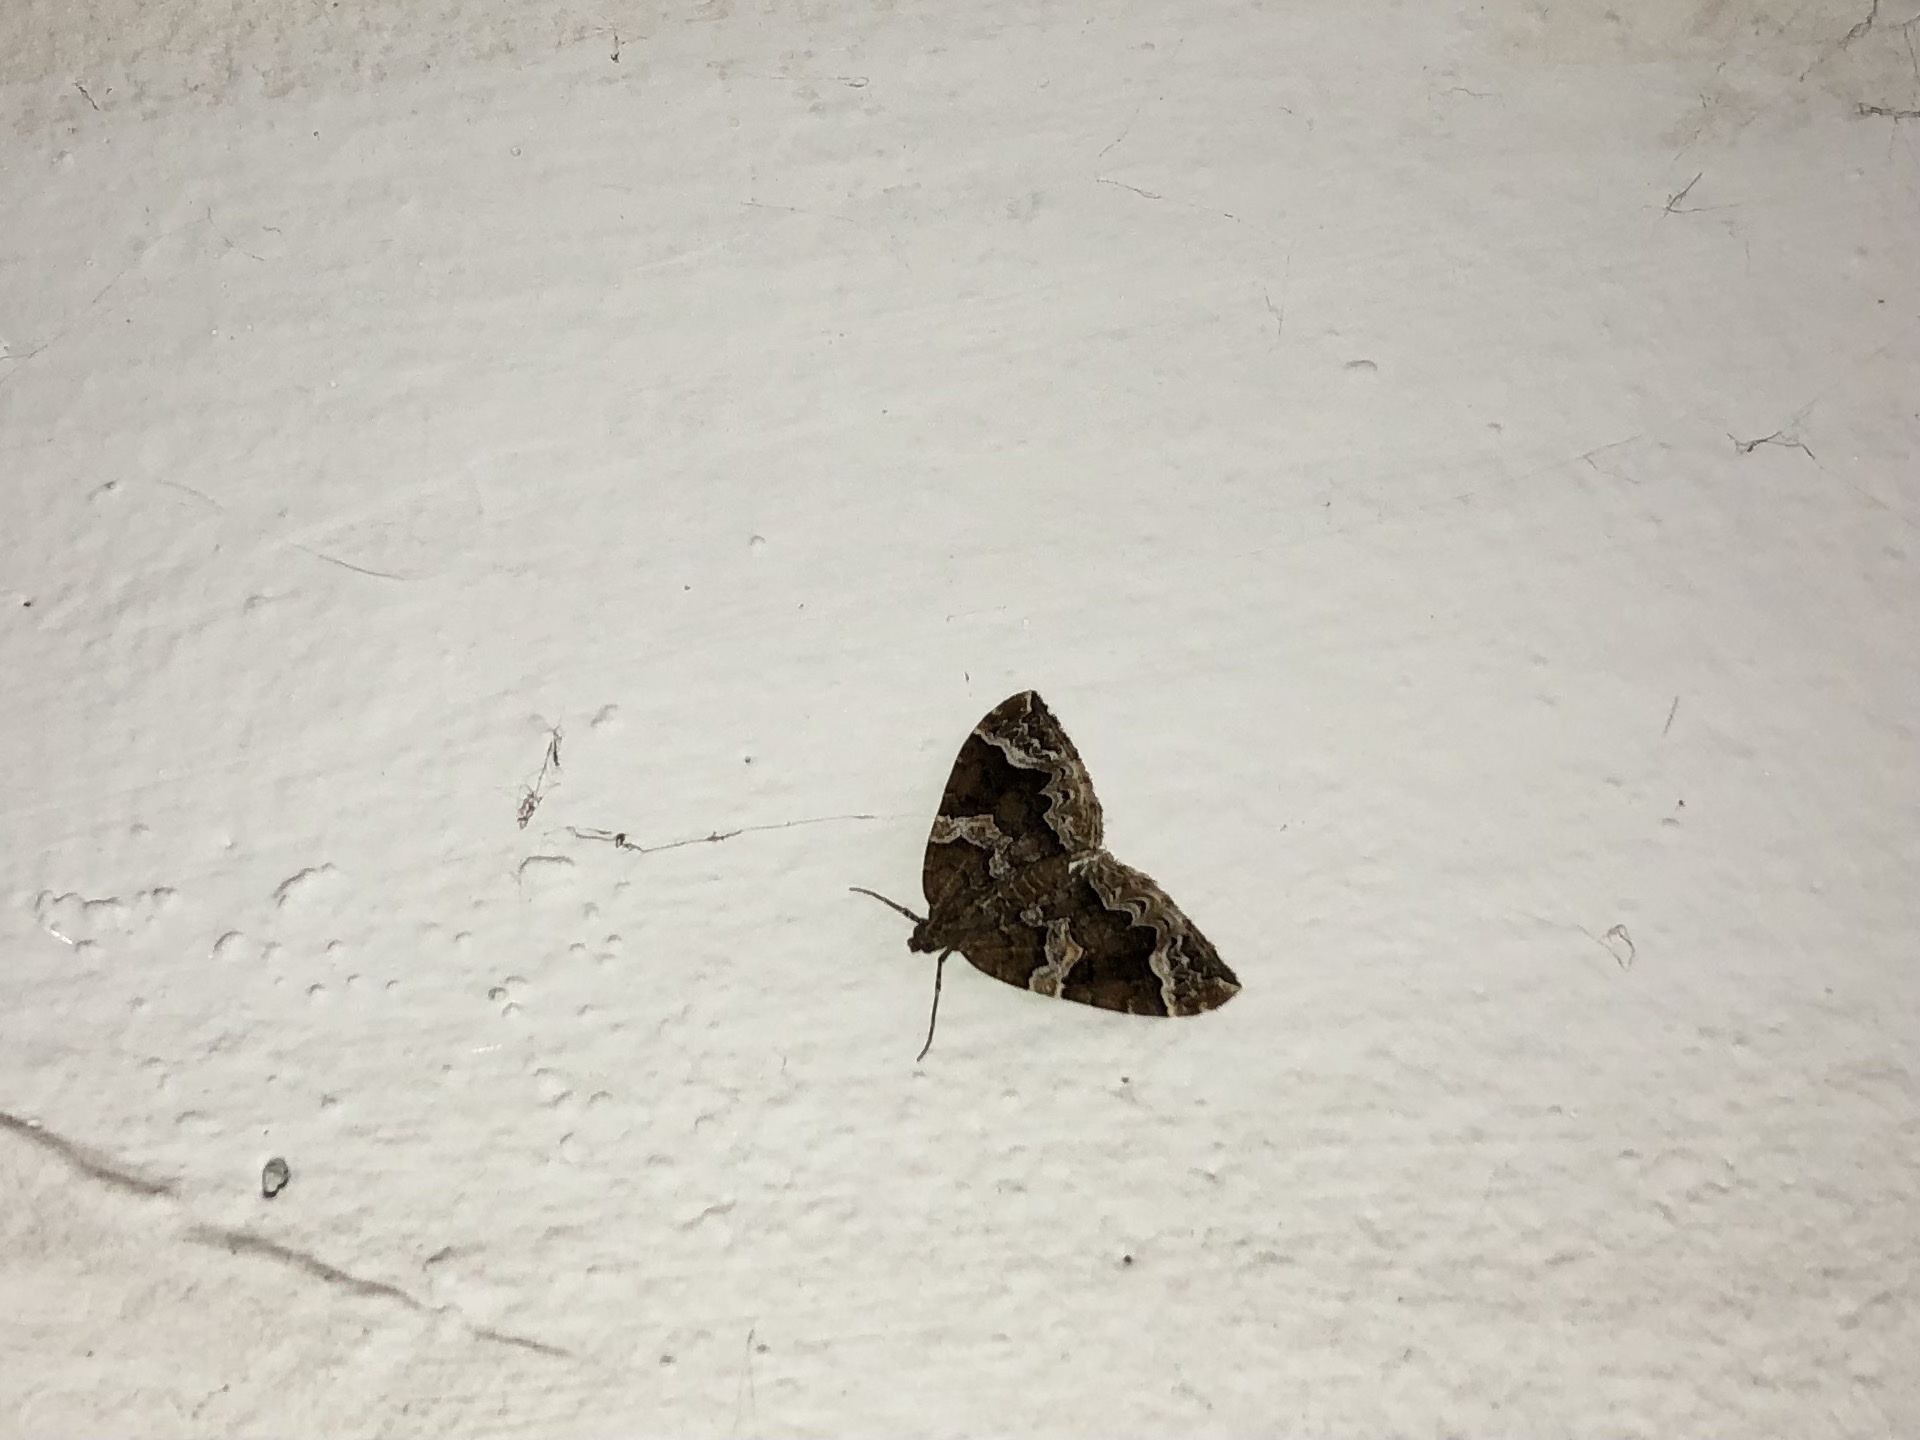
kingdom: Animalia
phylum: Arthropoda
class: Insecta
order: Lepidoptera
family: Geometridae
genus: Eulithis
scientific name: Eulithis prunata
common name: Phoenix
